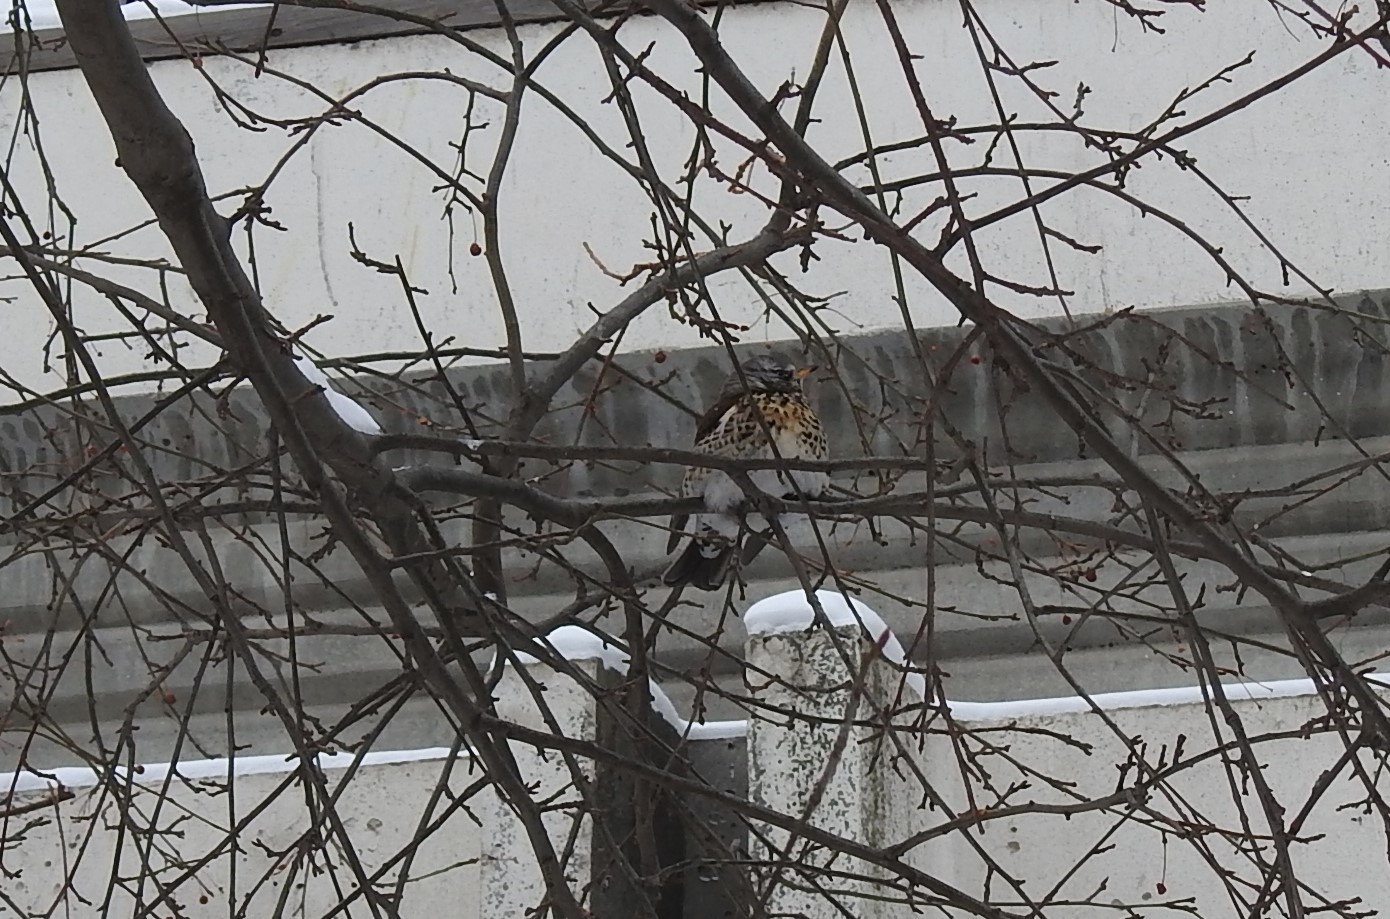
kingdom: Animalia
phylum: Chordata
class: Aves
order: Passeriformes
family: Turdidae
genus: Turdus
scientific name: Turdus pilaris
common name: Fieldfare
